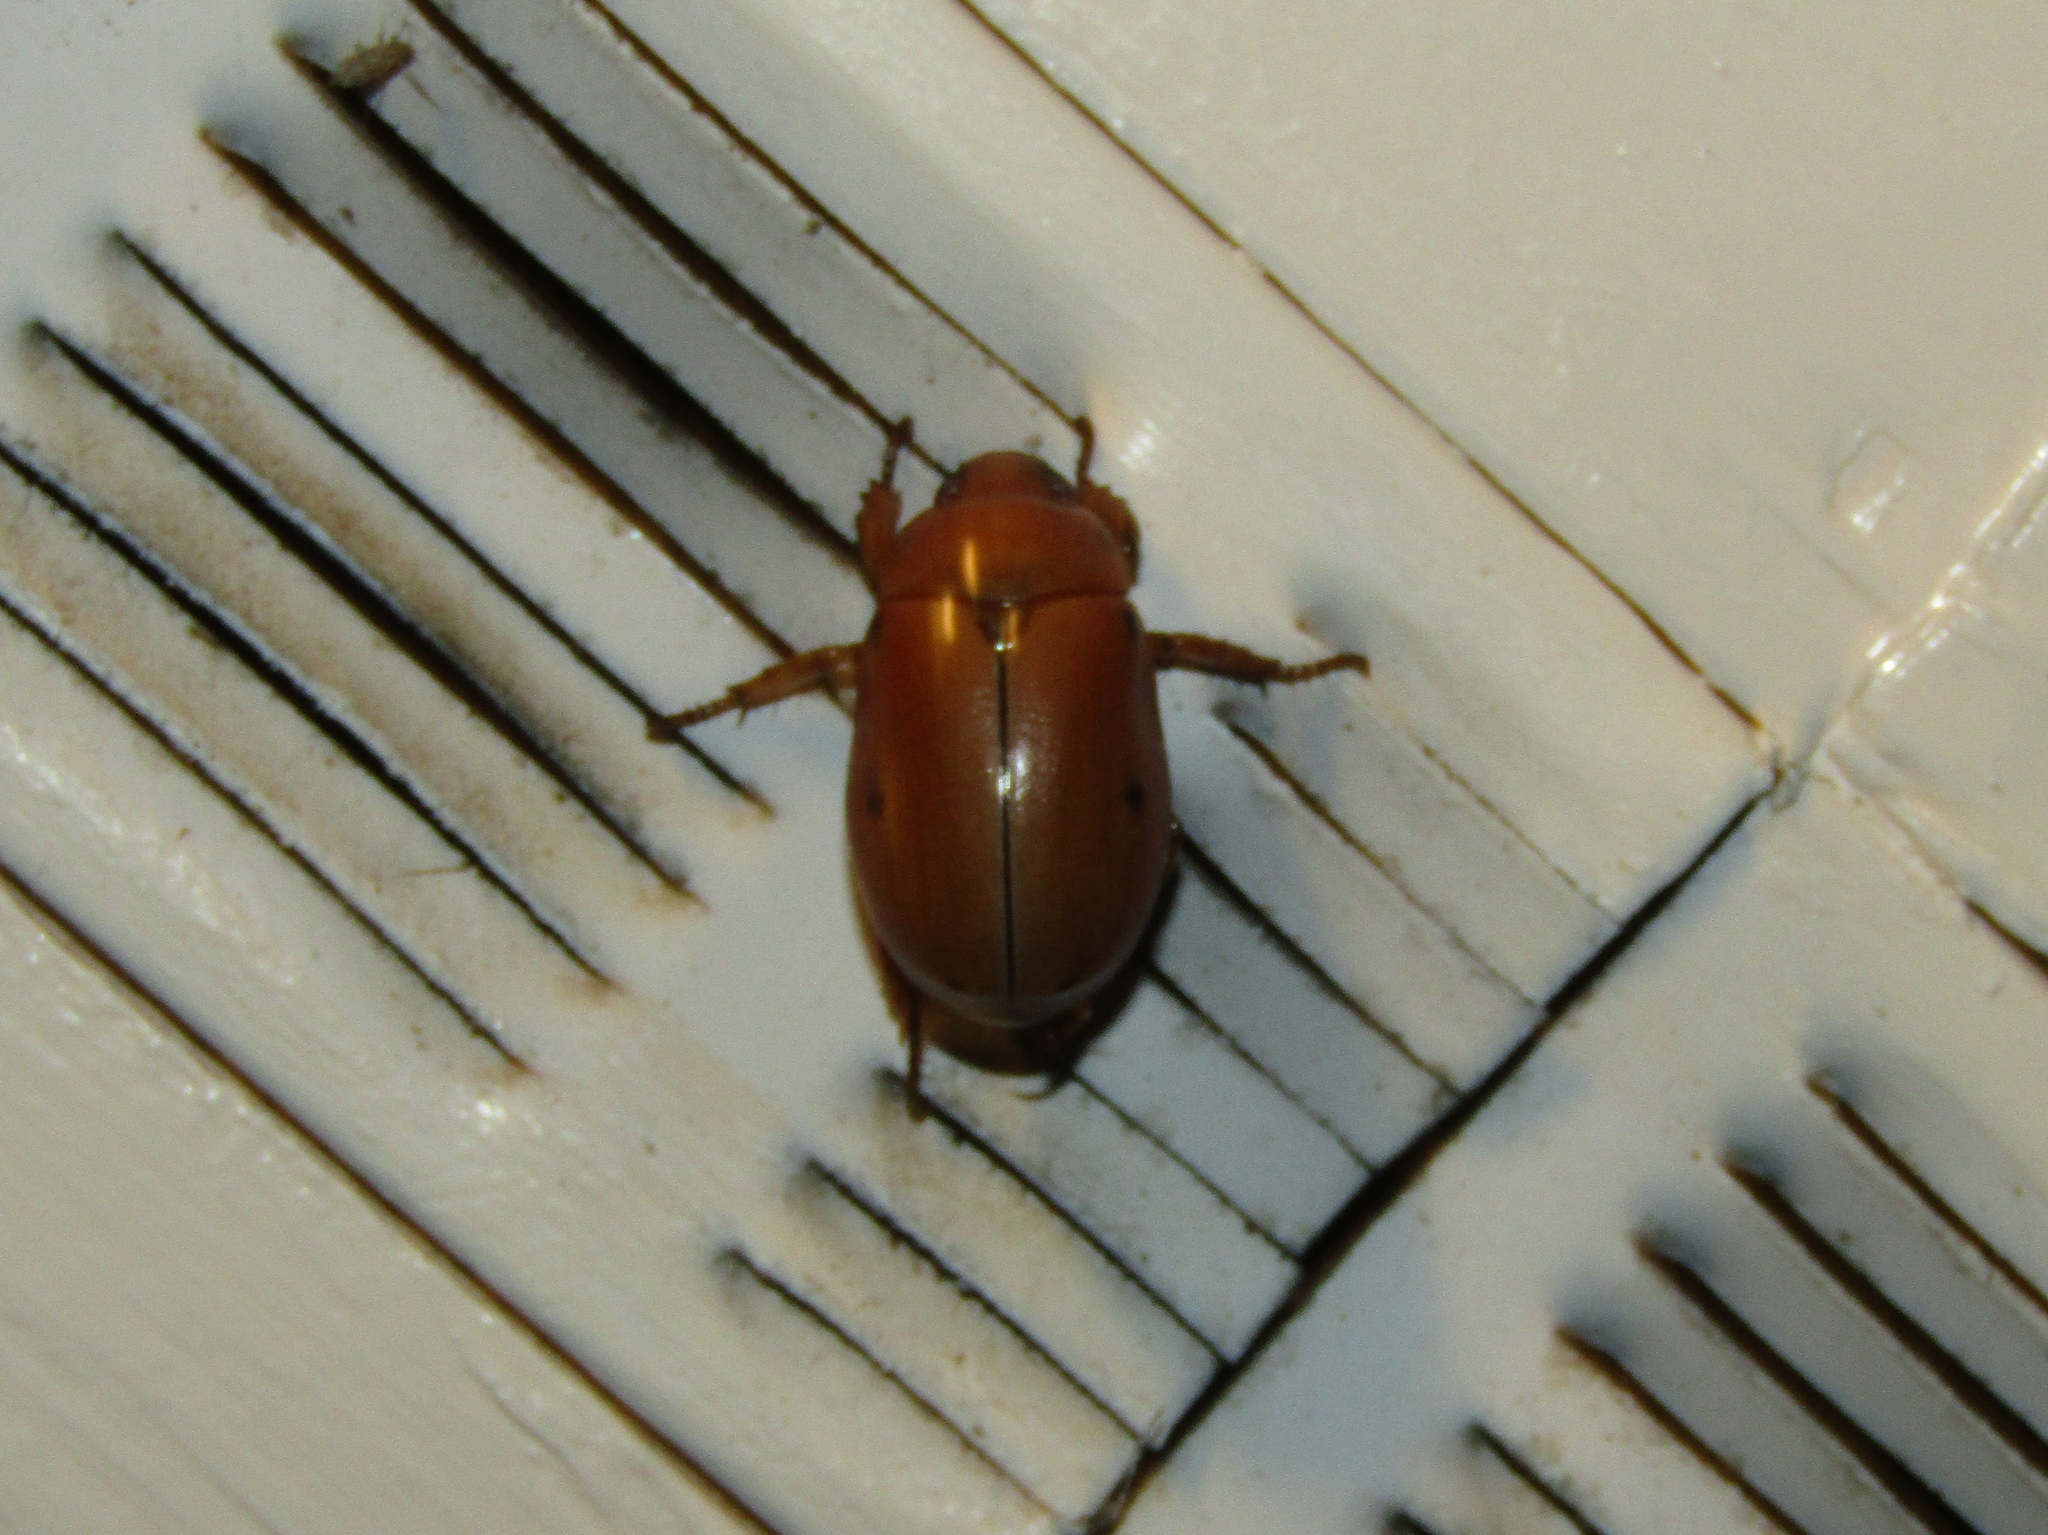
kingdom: Animalia
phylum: Arthropoda
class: Insecta
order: Coleoptera
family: Scarabaeidae
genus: Pelidnota
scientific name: Pelidnota punctata
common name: Grapevine beetle
